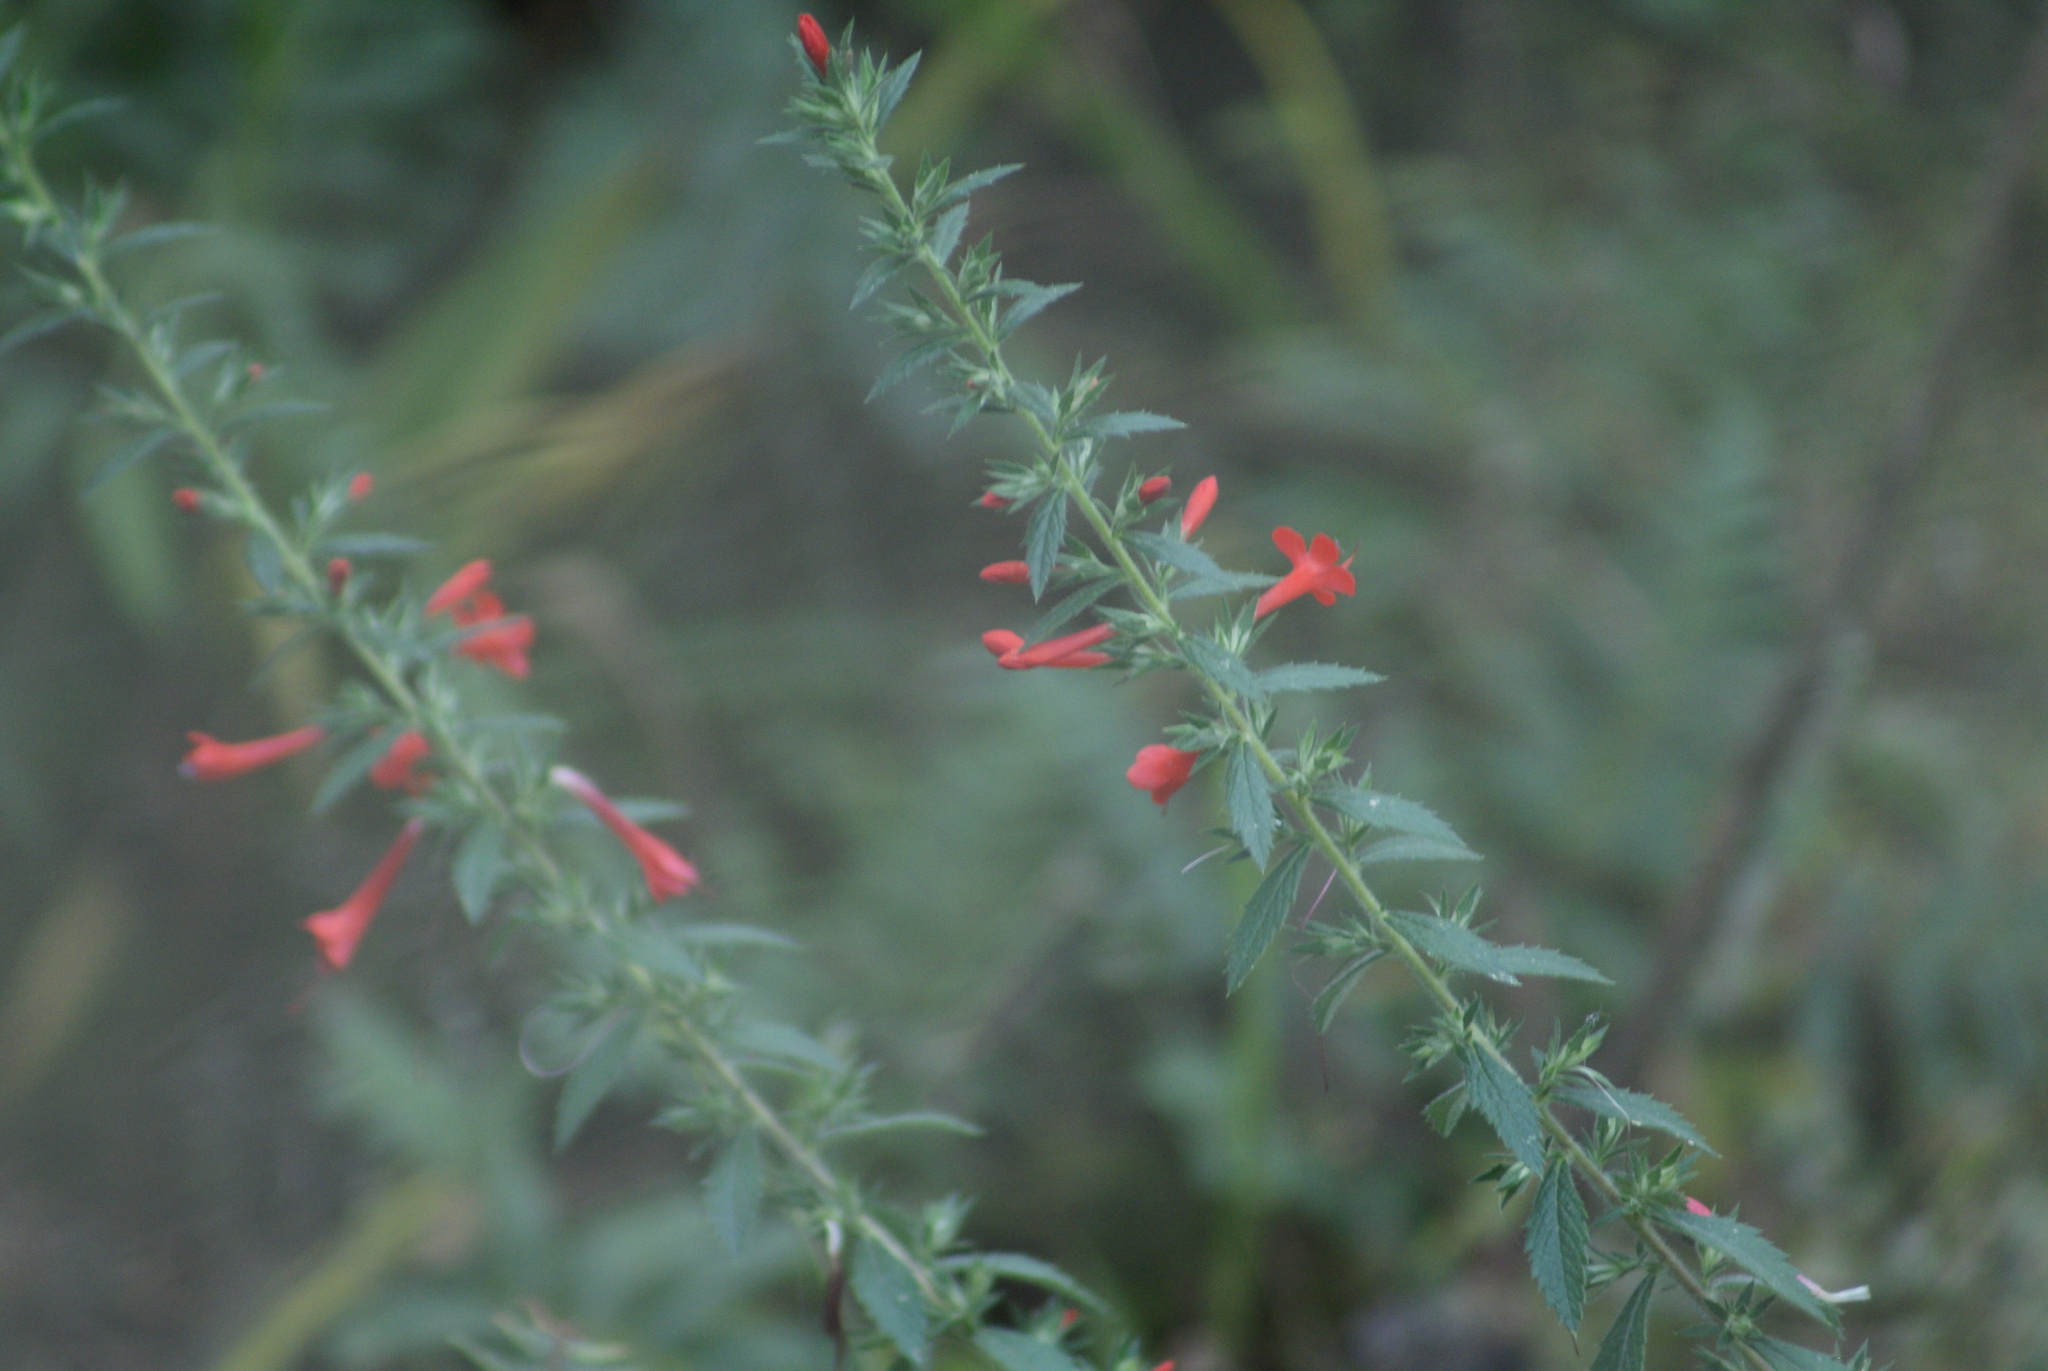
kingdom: Plantae
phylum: Tracheophyta
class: Magnoliopsida
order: Ericales
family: Polemoniaceae
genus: Loeselia
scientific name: Loeselia mexicana
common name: Mexican false calico
